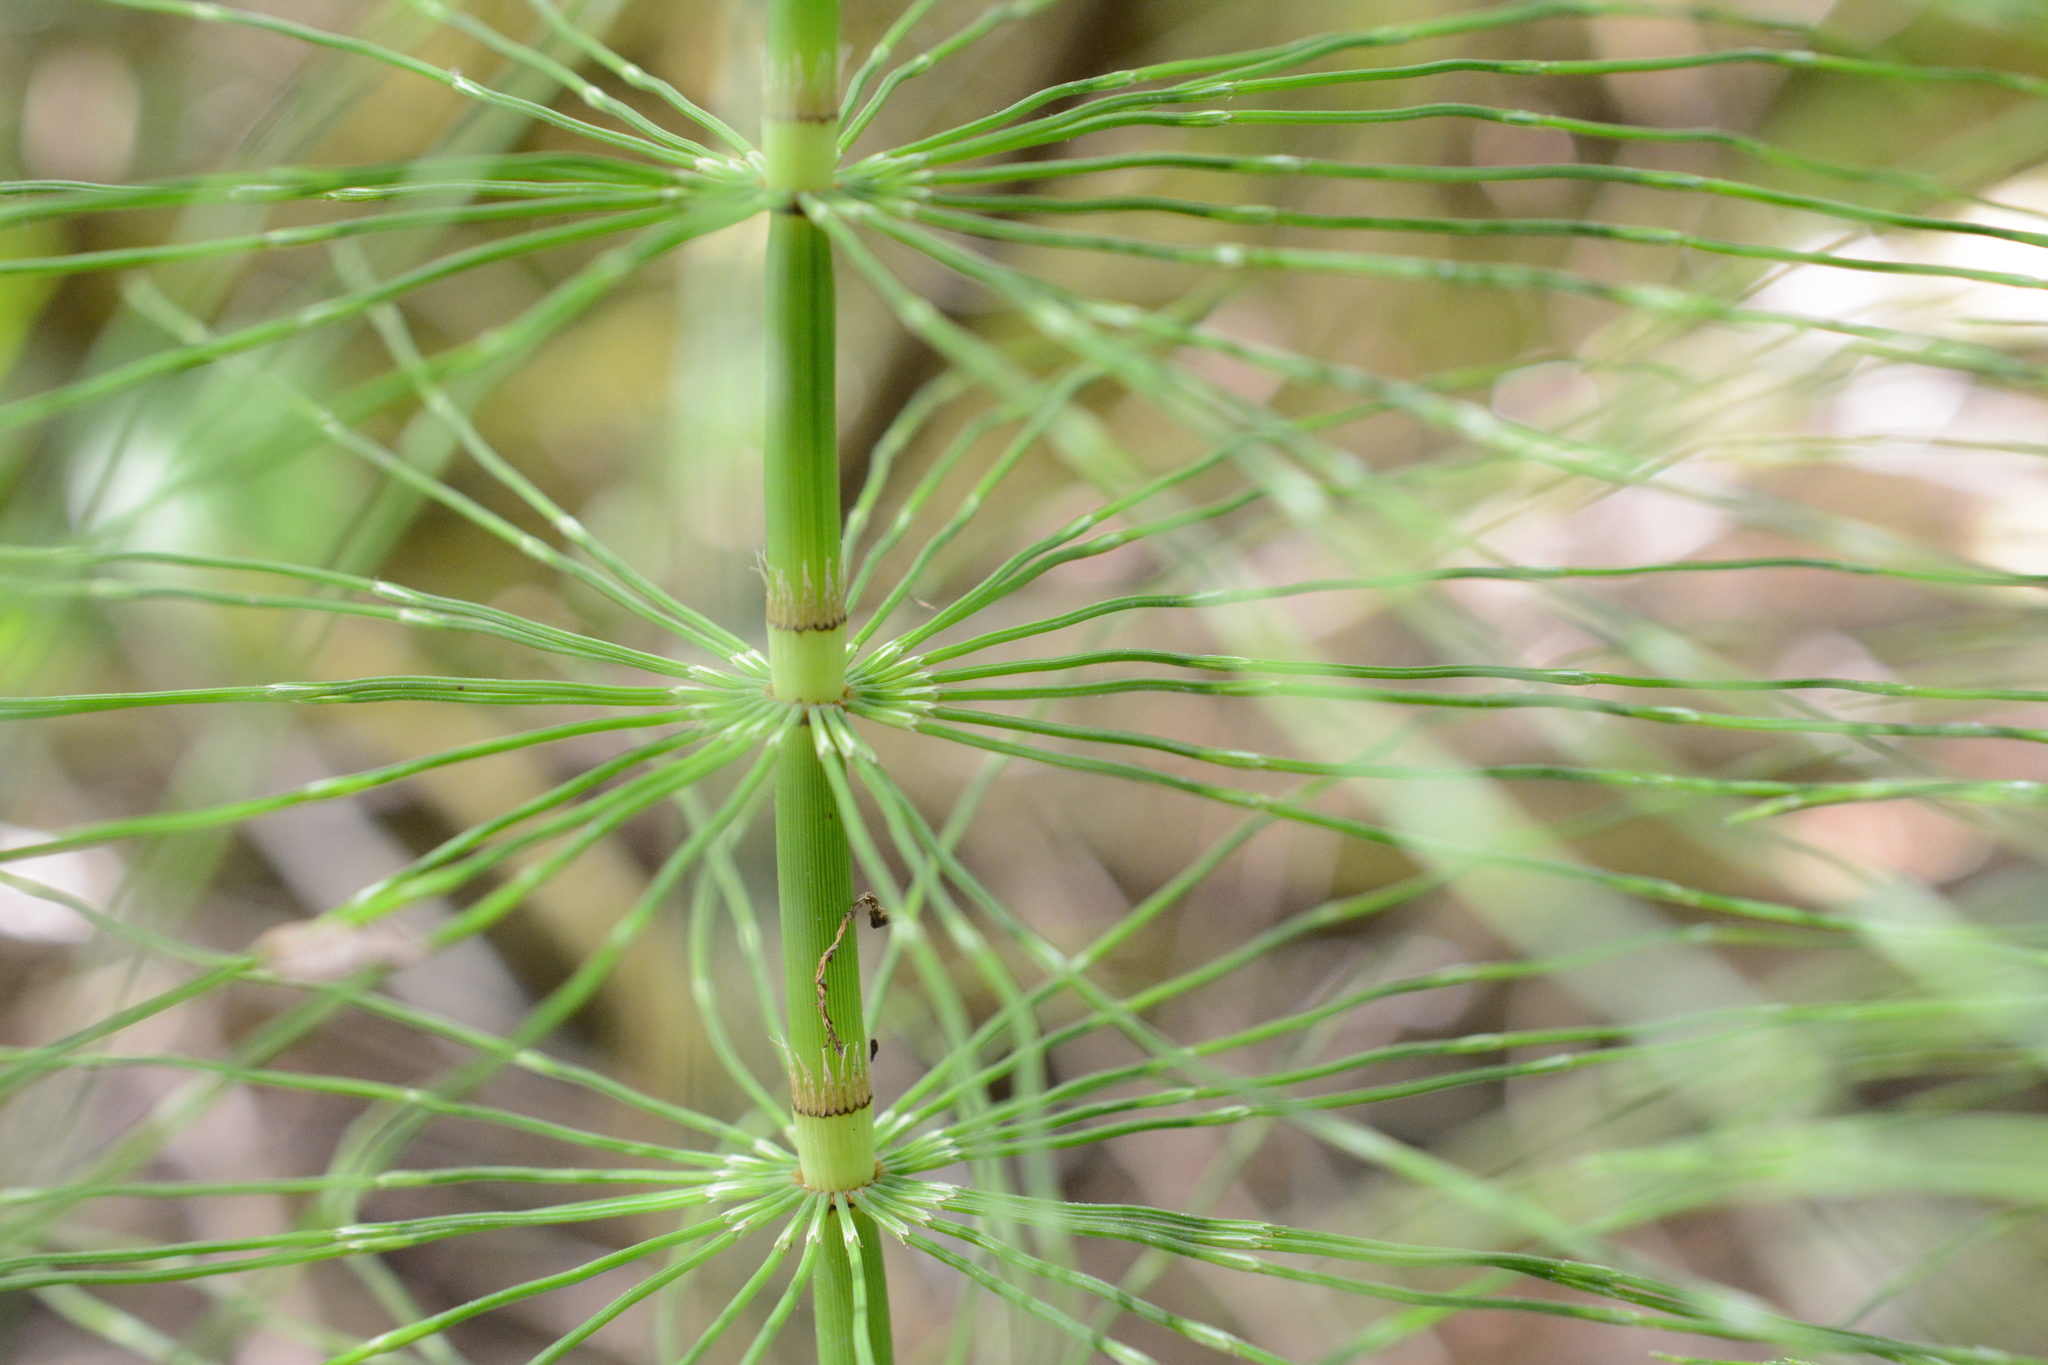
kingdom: Plantae
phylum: Tracheophyta
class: Polypodiopsida
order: Equisetales
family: Equisetaceae
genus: Equisetum
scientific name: Equisetum telmateia
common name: Great horsetail
